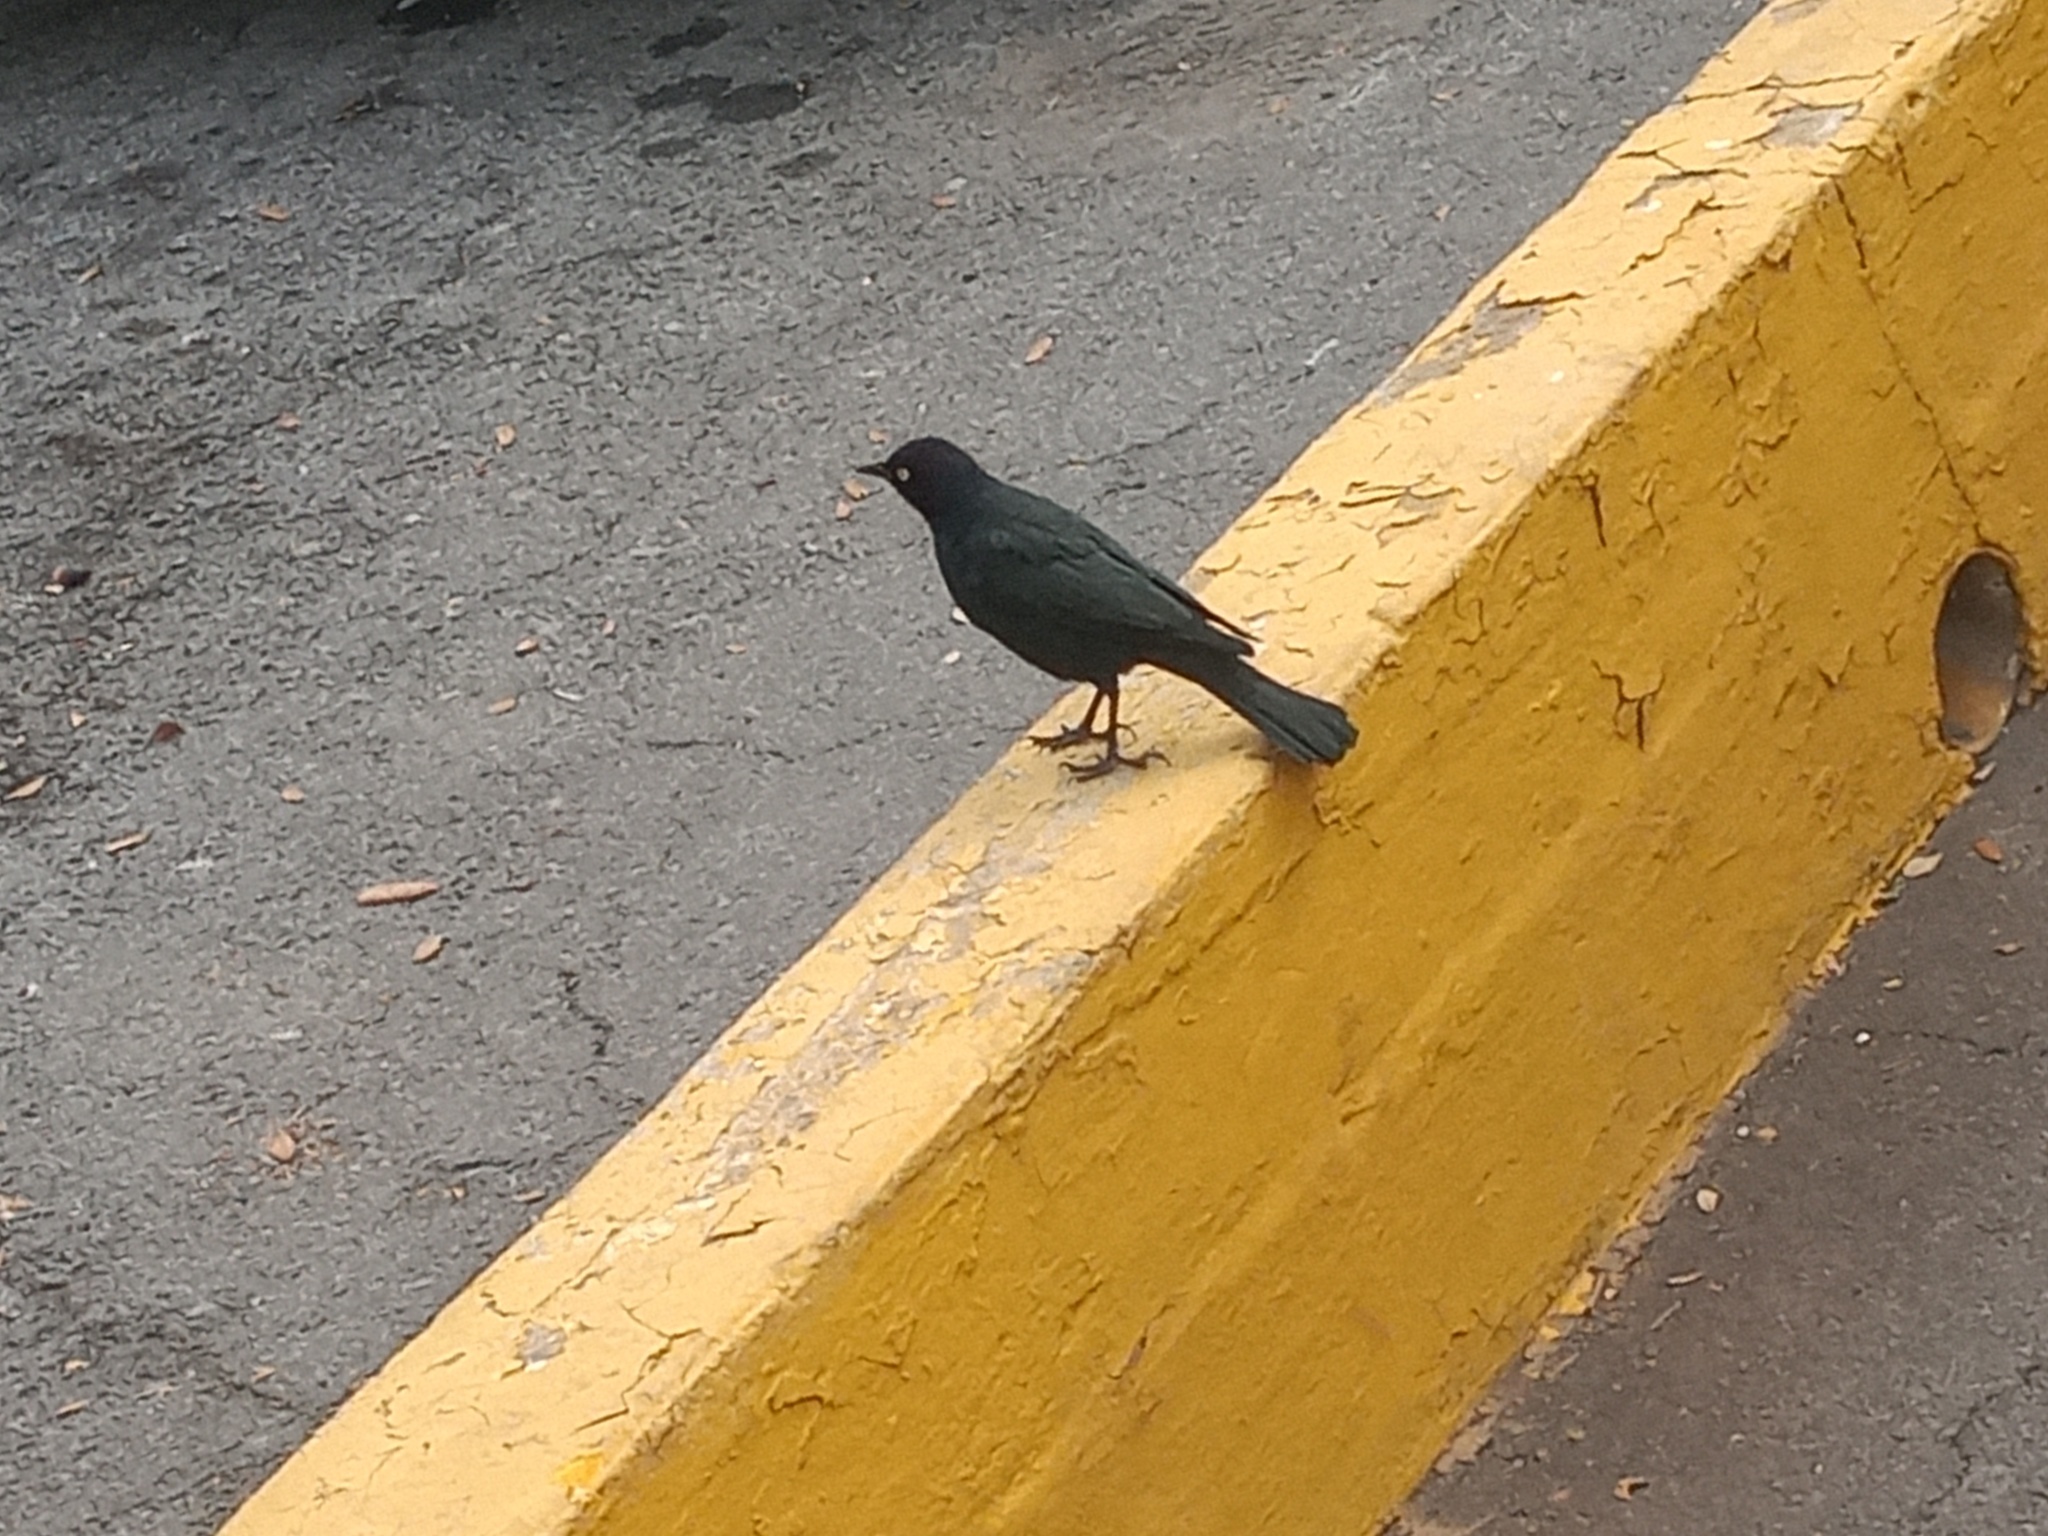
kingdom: Animalia
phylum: Chordata
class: Aves
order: Passeriformes
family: Icteridae
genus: Euphagus
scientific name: Euphagus cyanocephalus
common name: Brewer's blackbird
